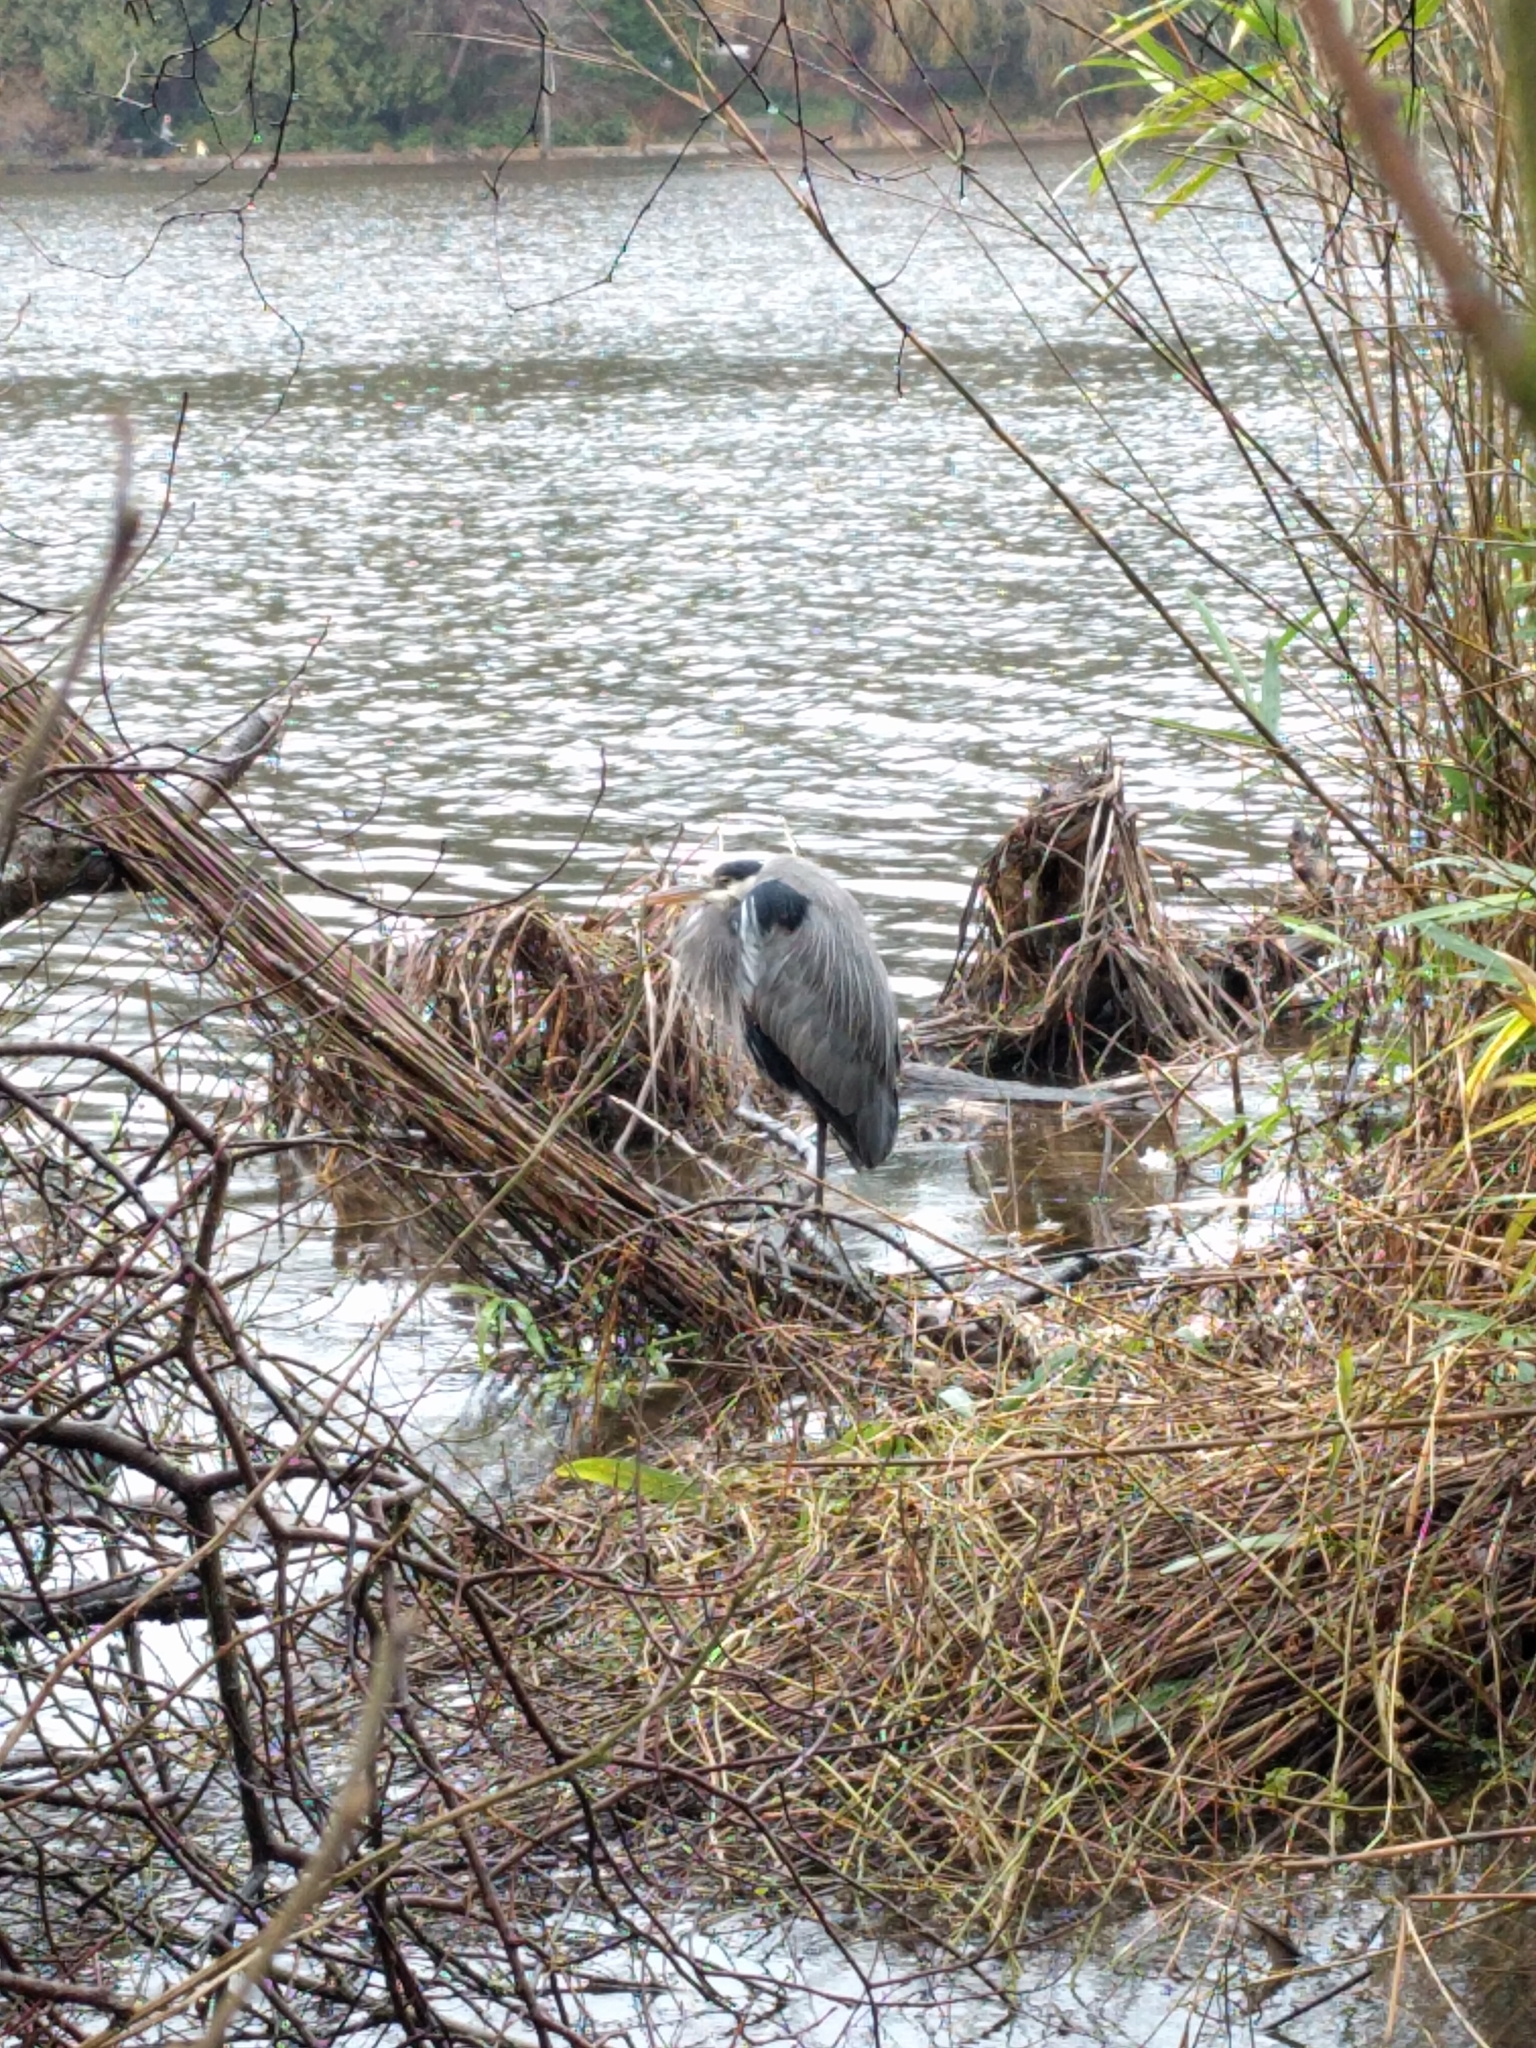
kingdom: Animalia
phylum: Chordata
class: Aves
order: Pelecaniformes
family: Ardeidae
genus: Ardea
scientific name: Ardea herodias
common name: Great blue heron
